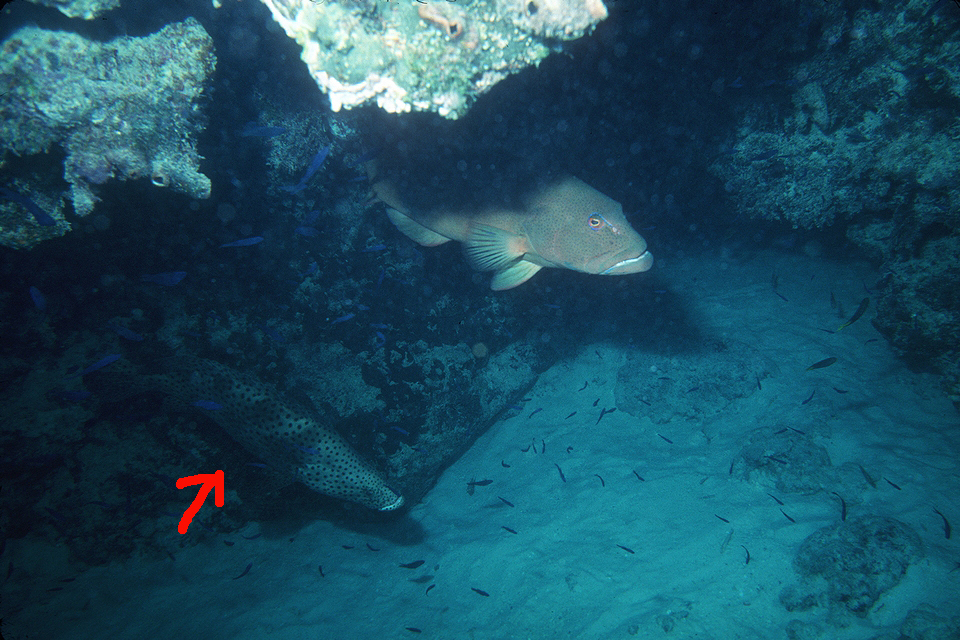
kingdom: Animalia
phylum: Chordata
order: Perciformes
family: Serranidae
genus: Cromileptes
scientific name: Cromileptes altivelis
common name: Humpback grouper
